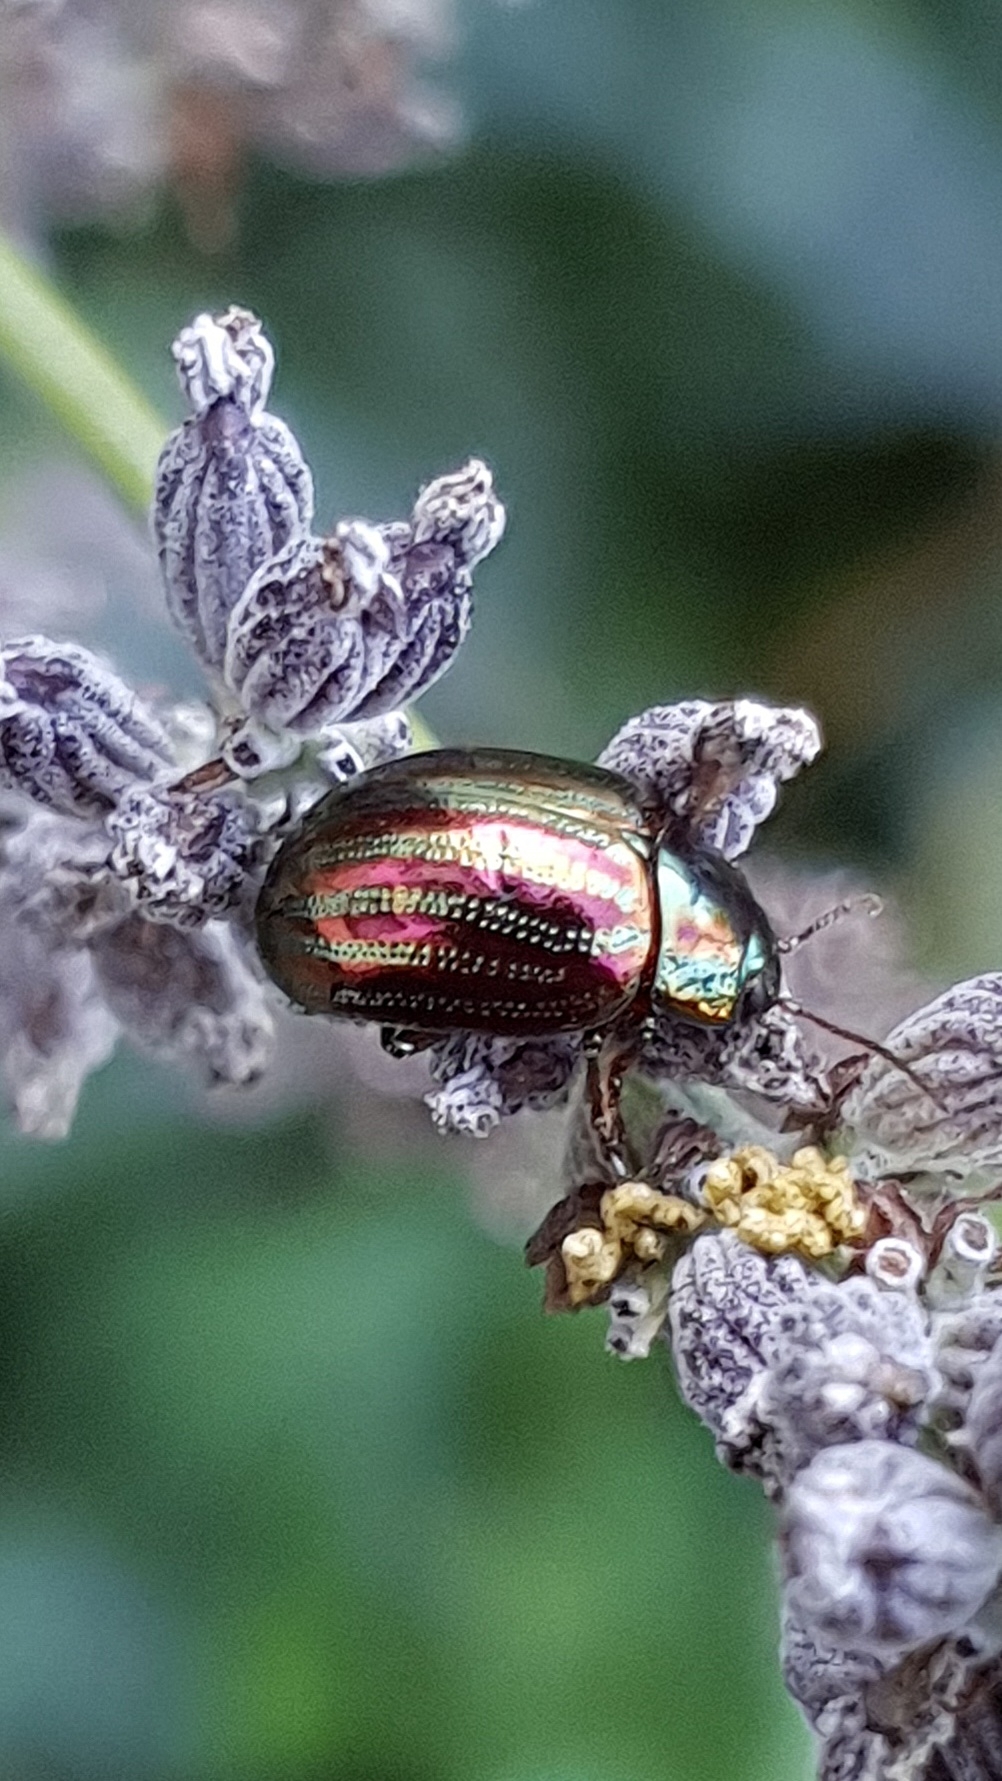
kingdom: Animalia
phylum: Arthropoda
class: Insecta
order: Coleoptera
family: Chrysomelidae
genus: Chrysolina
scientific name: Chrysolina americana
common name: Rosemary beetle
